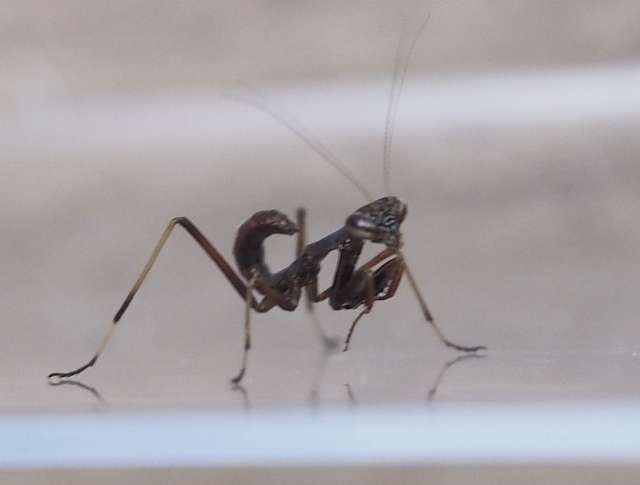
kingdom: Animalia
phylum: Arthropoda
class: Insecta
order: Mantodea
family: Mantidae
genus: Pseudomantis
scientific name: Pseudomantis albofimbriata
